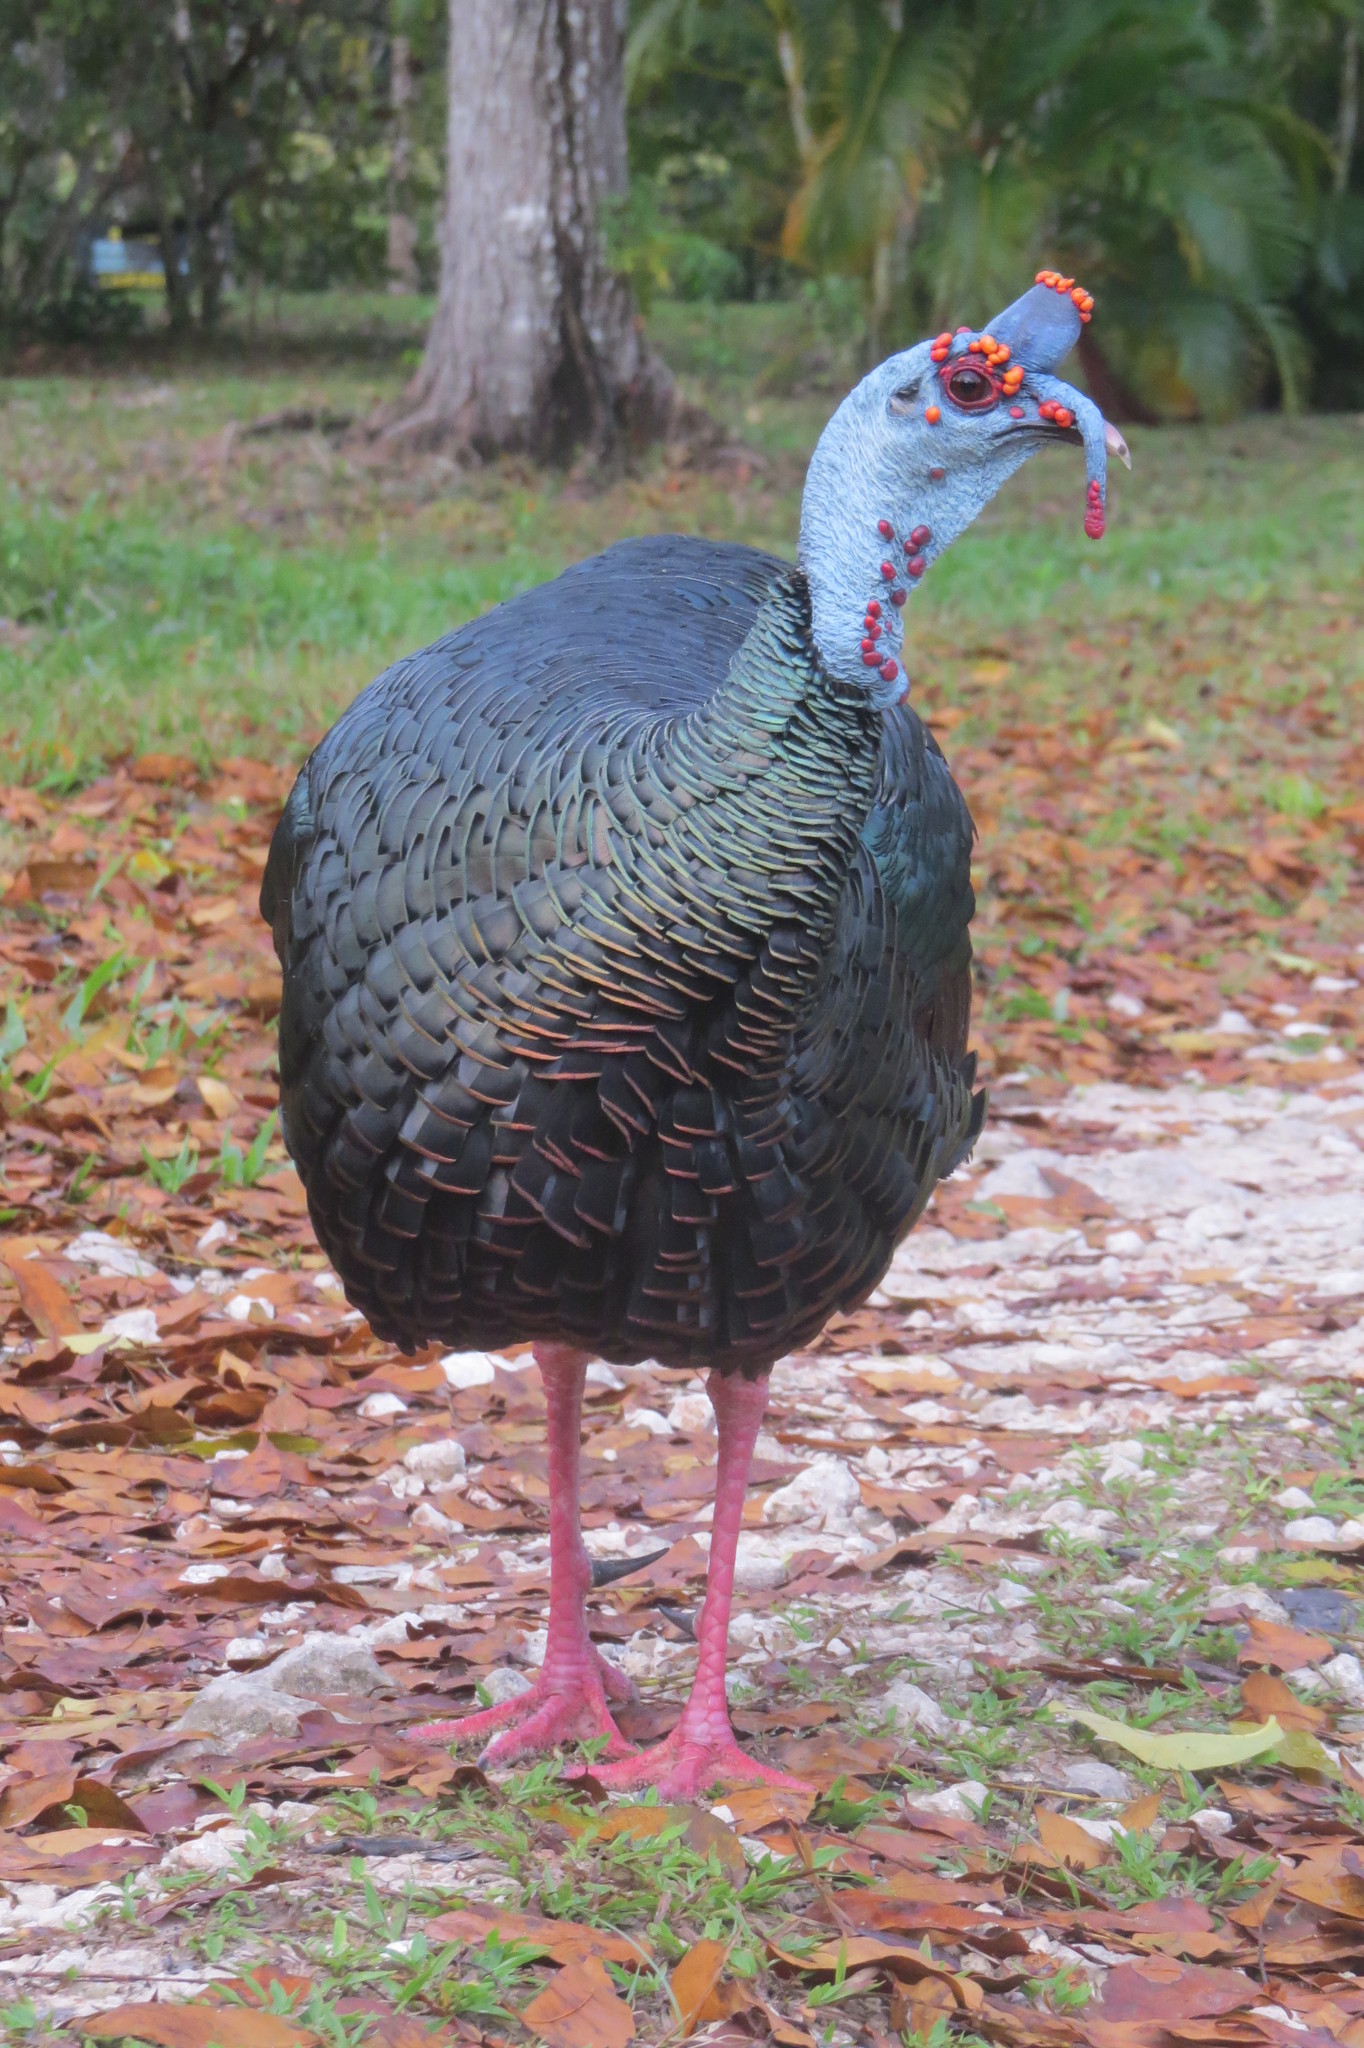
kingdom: Animalia
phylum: Chordata
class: Aves
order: Galliformes
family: Phasianidae
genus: Meleagris
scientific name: Meleagris ocellata
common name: Ocellated turkey
